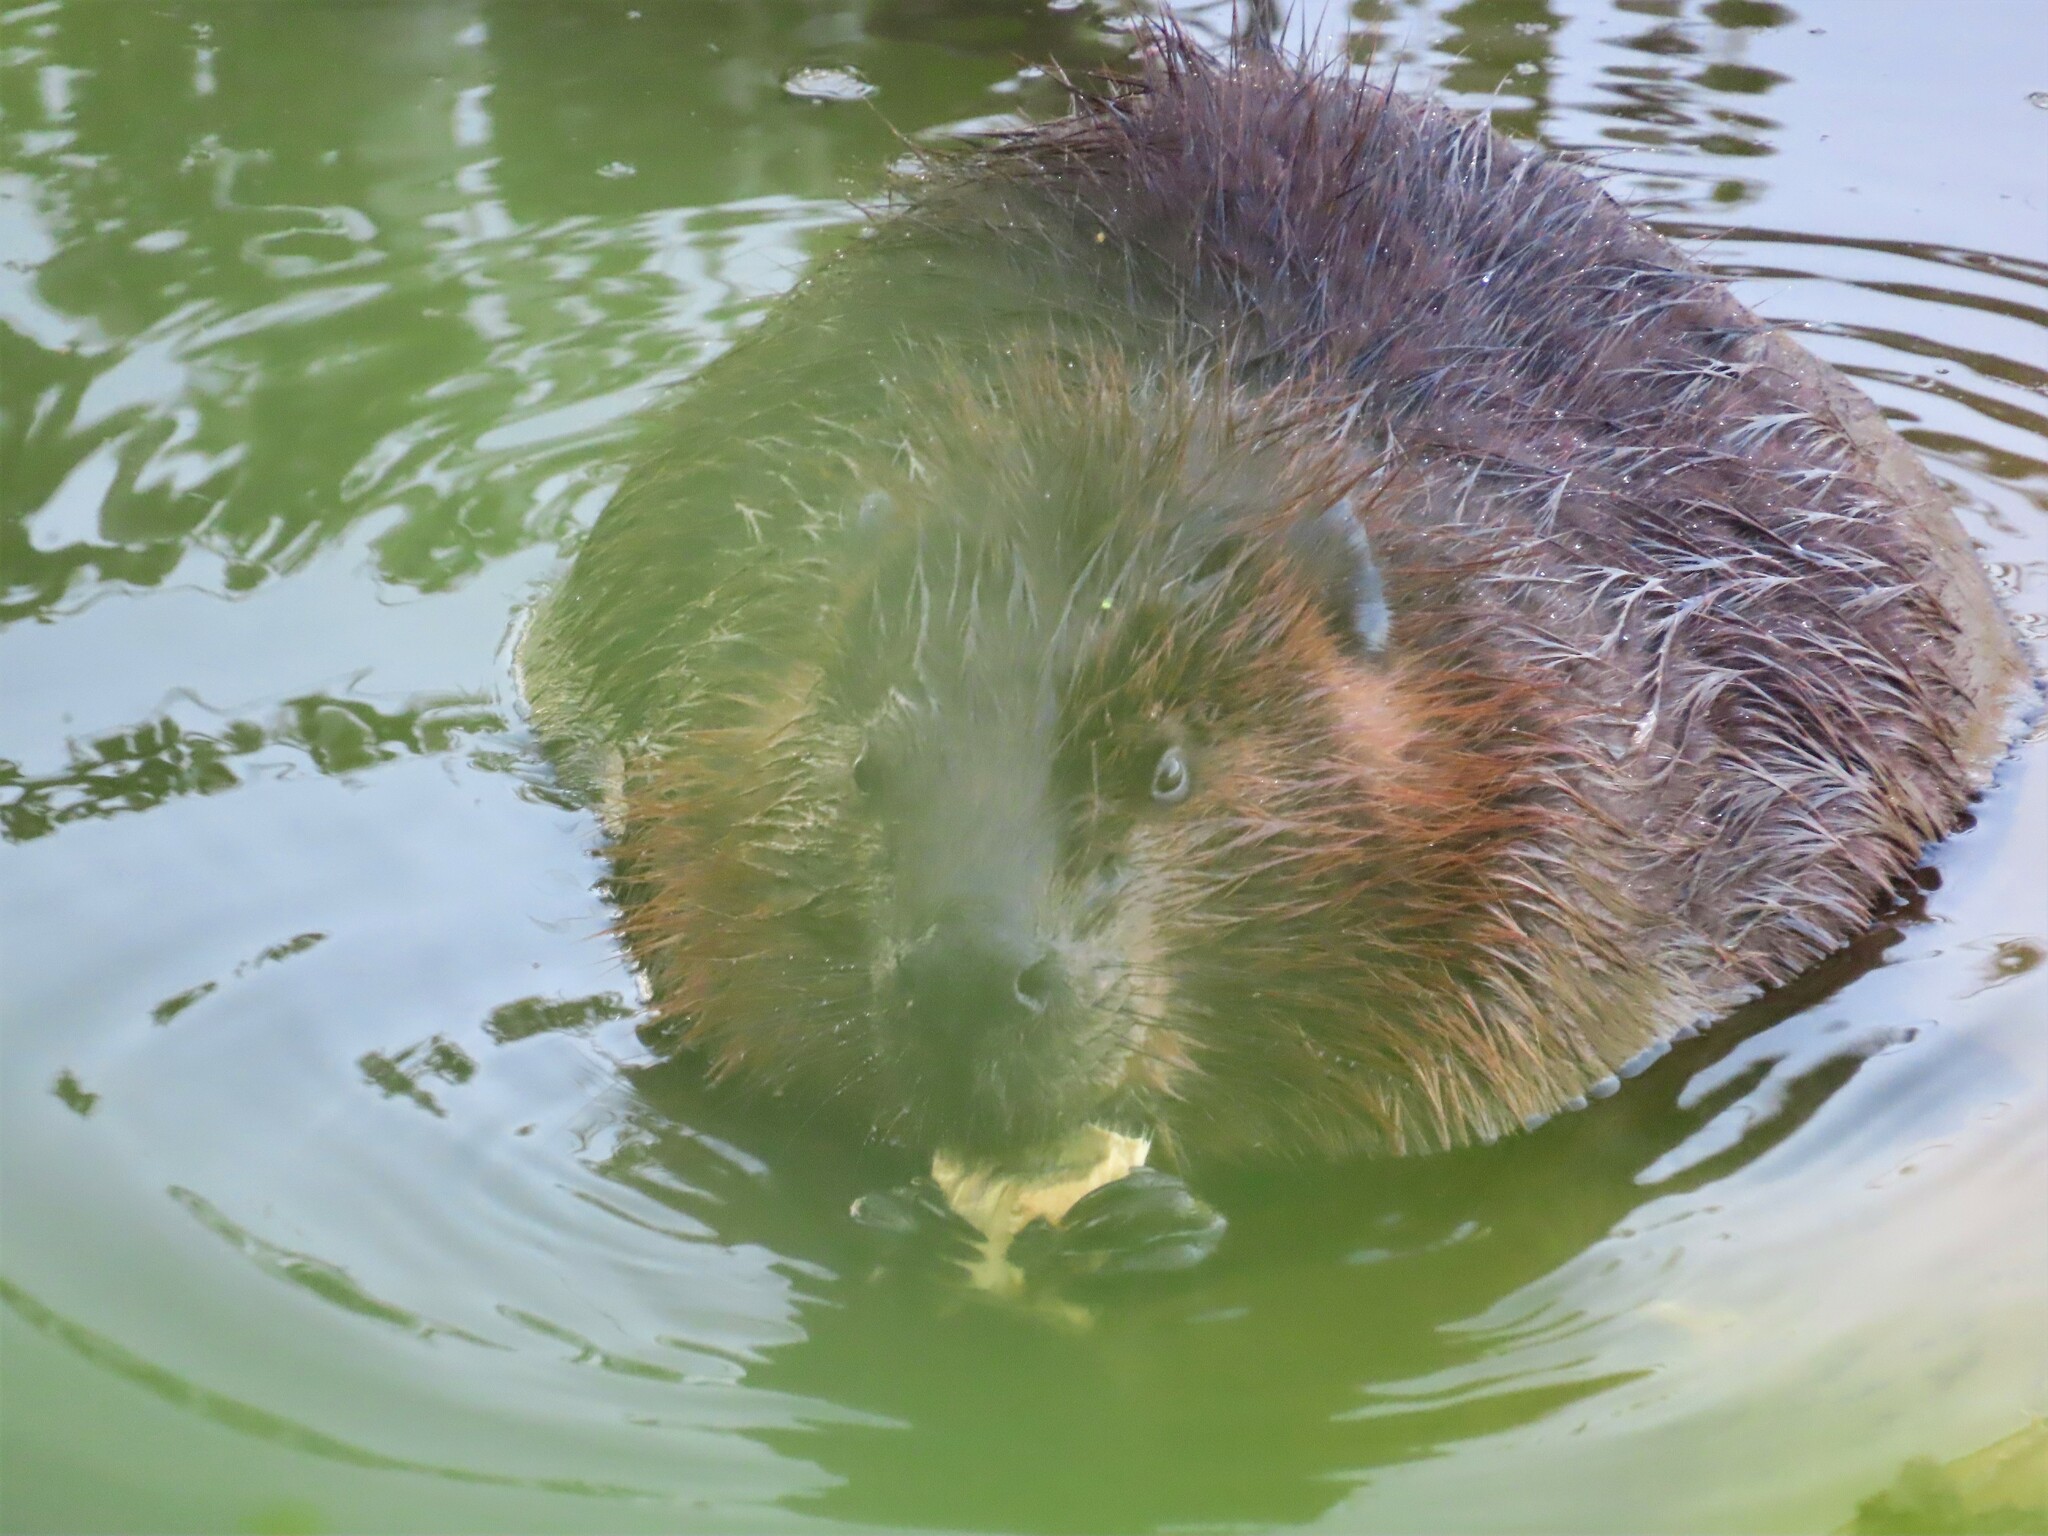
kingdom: Animalia
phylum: Chordata
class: Mammalia
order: Rodentia
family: Castoridae
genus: Castor
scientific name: Castor canadensis
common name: American beaver
